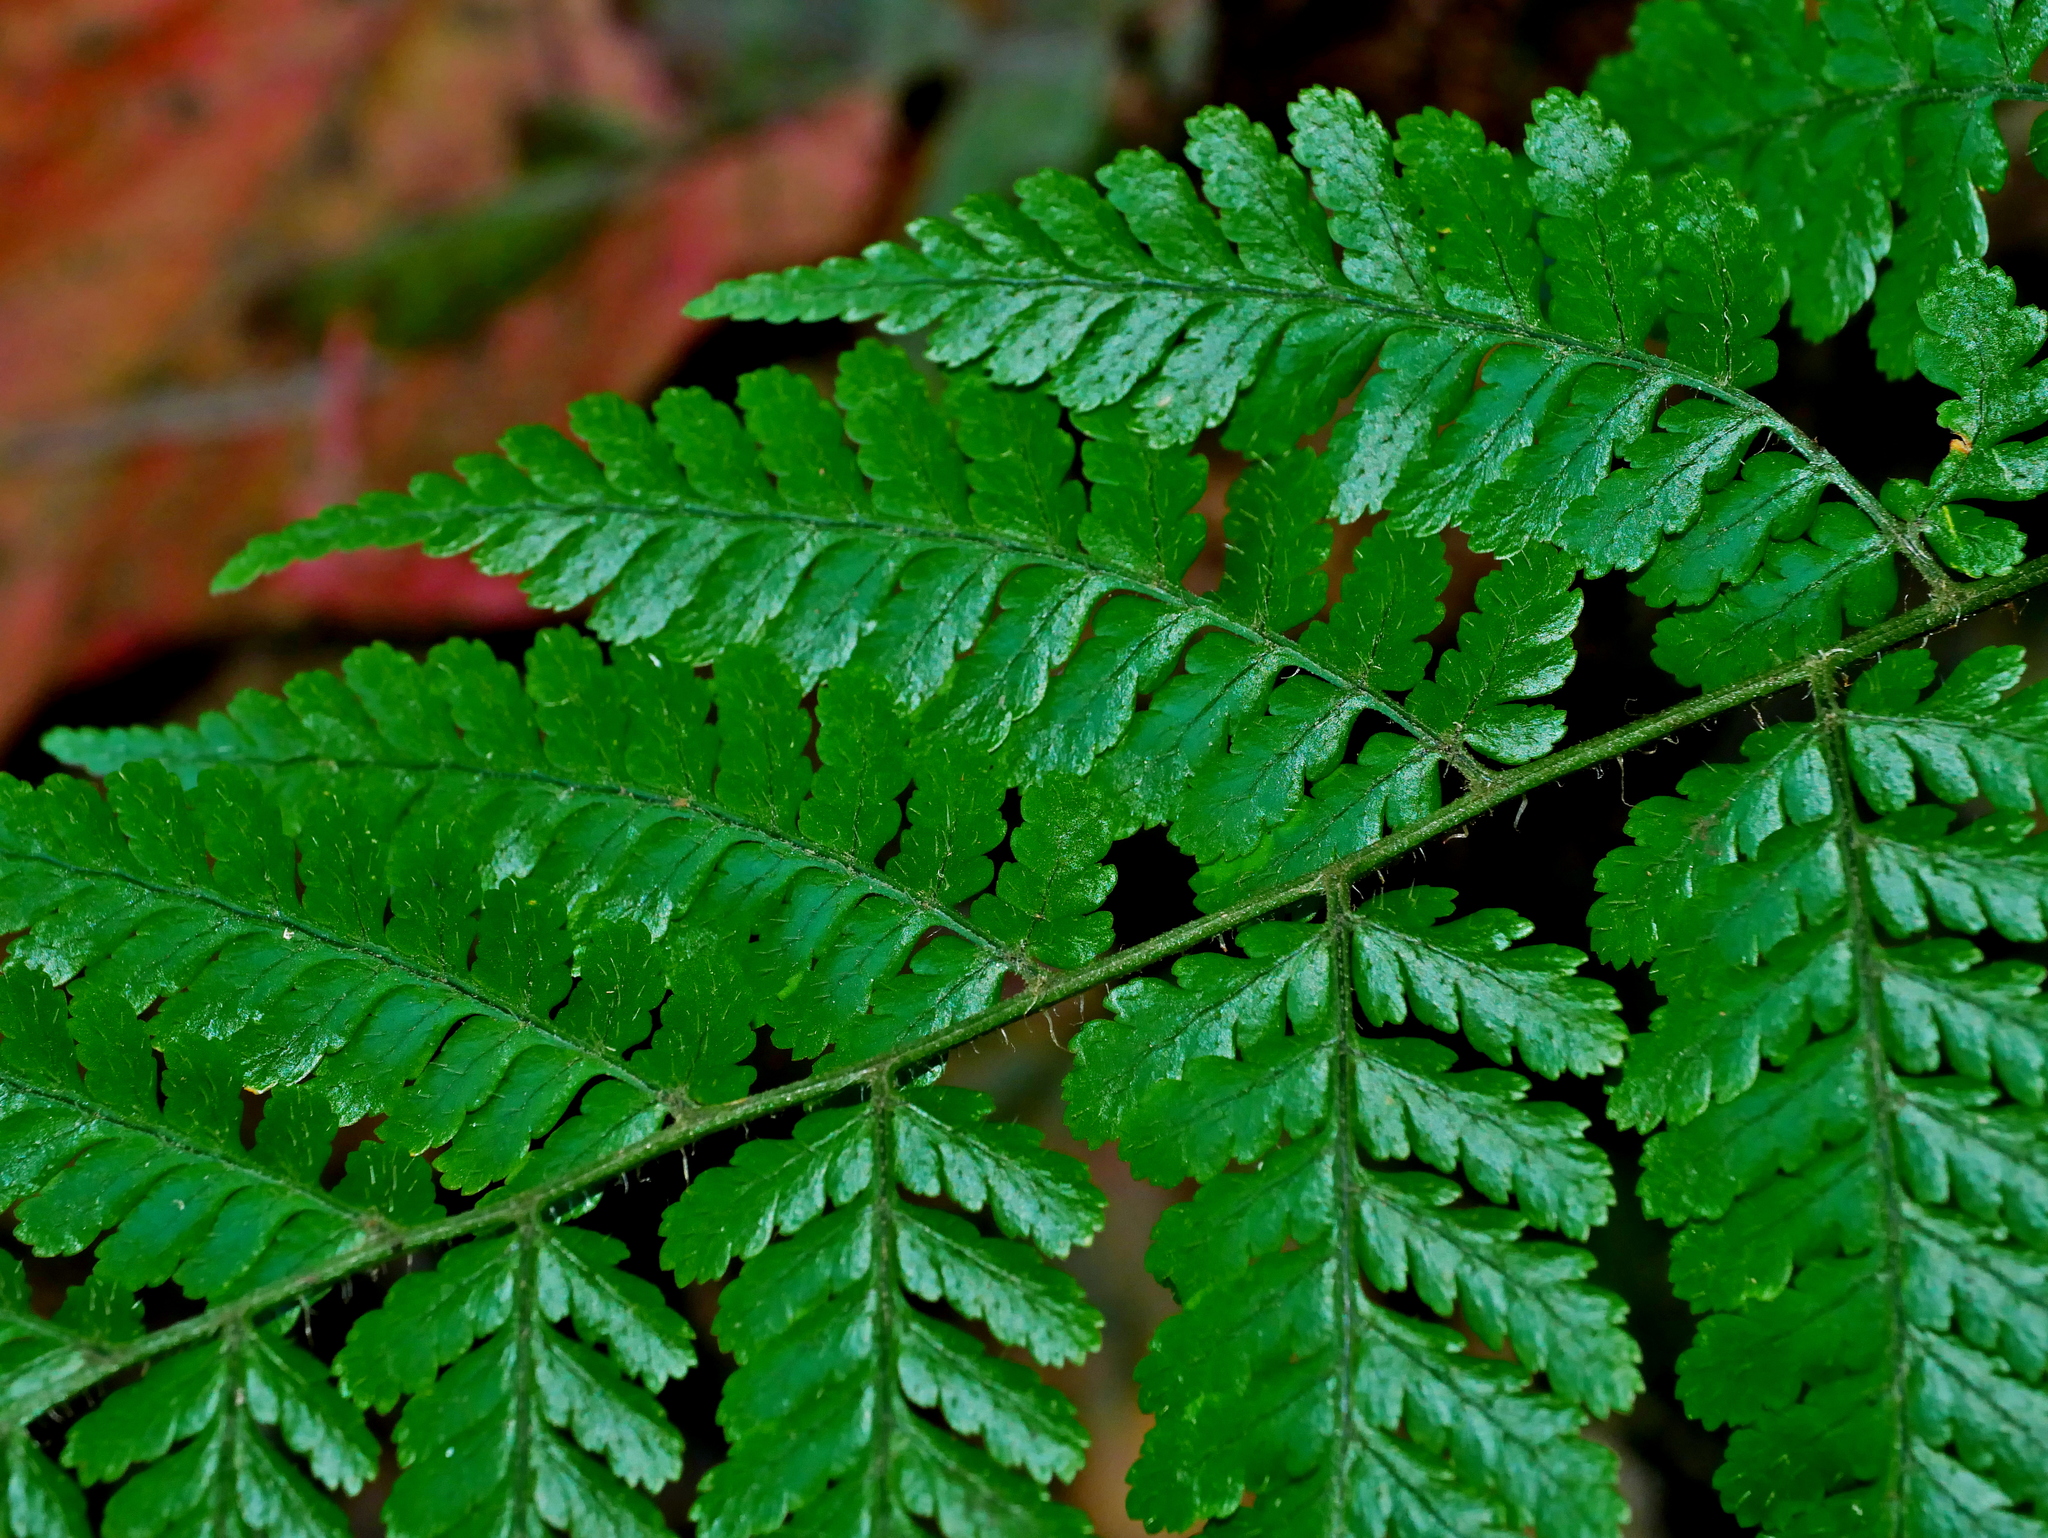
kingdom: Plantae
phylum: Tracheophyta
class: Polypodiopsida
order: Polypodiales
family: Dryopteridaceae
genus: Dryopteris
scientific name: Dryopteris hendersonii
